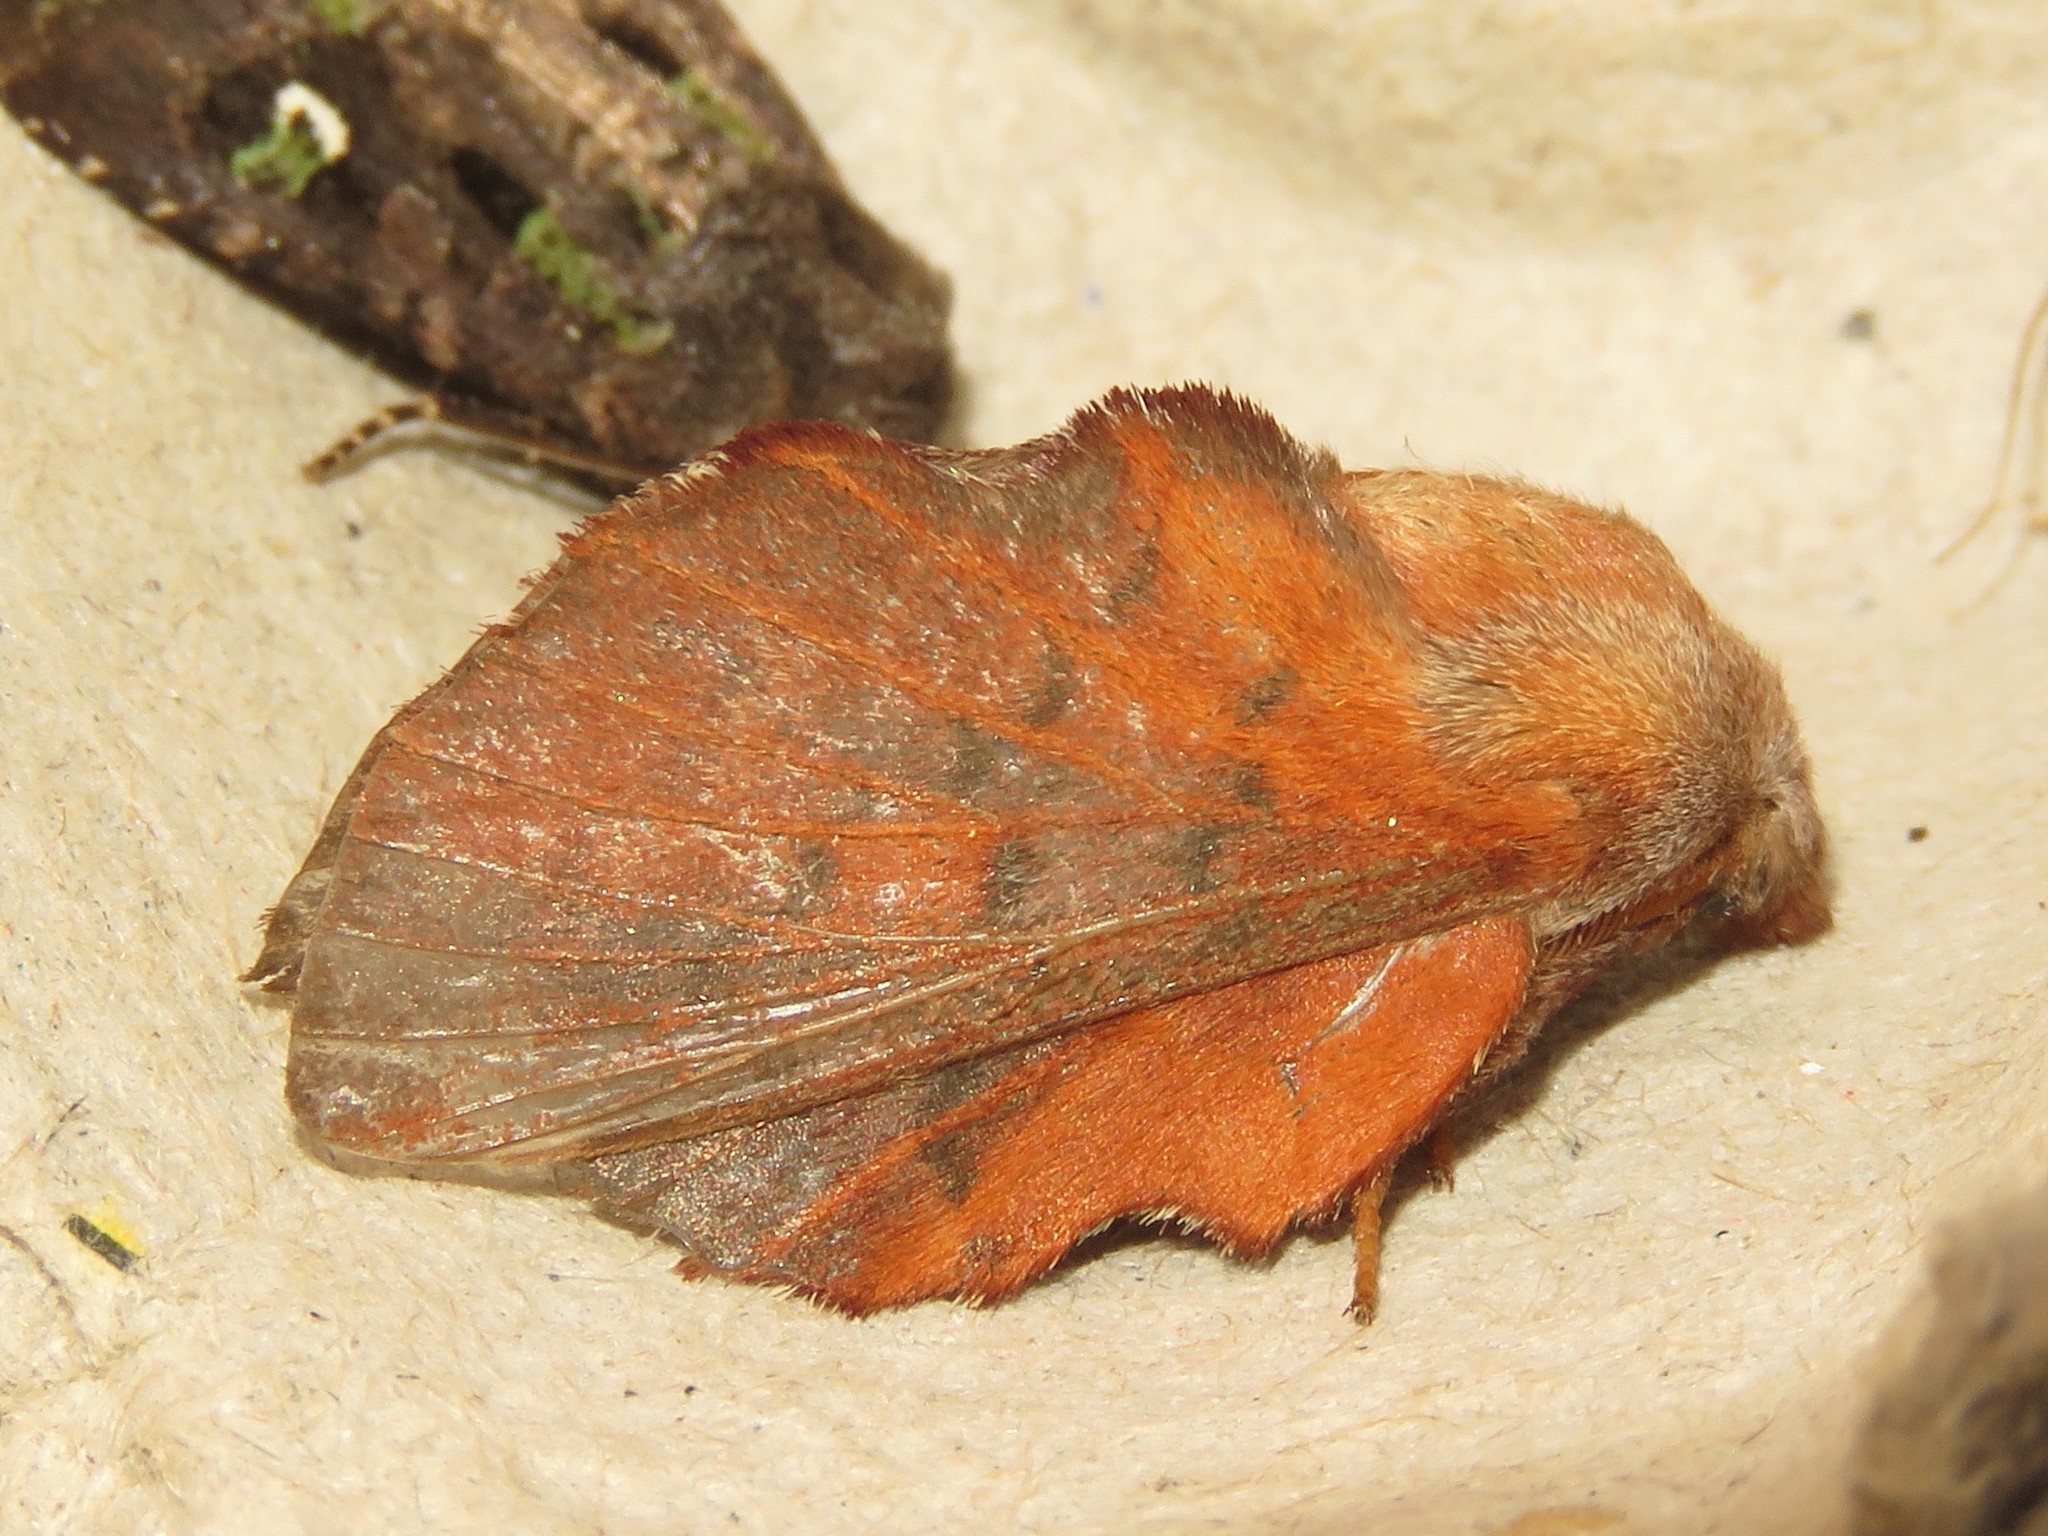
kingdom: Animalia
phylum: Arthropoda
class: Insecta
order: Lepidoptera
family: Lasiocampidae
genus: Phyllodesma
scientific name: Phyllodesma americana
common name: American lappet moth
